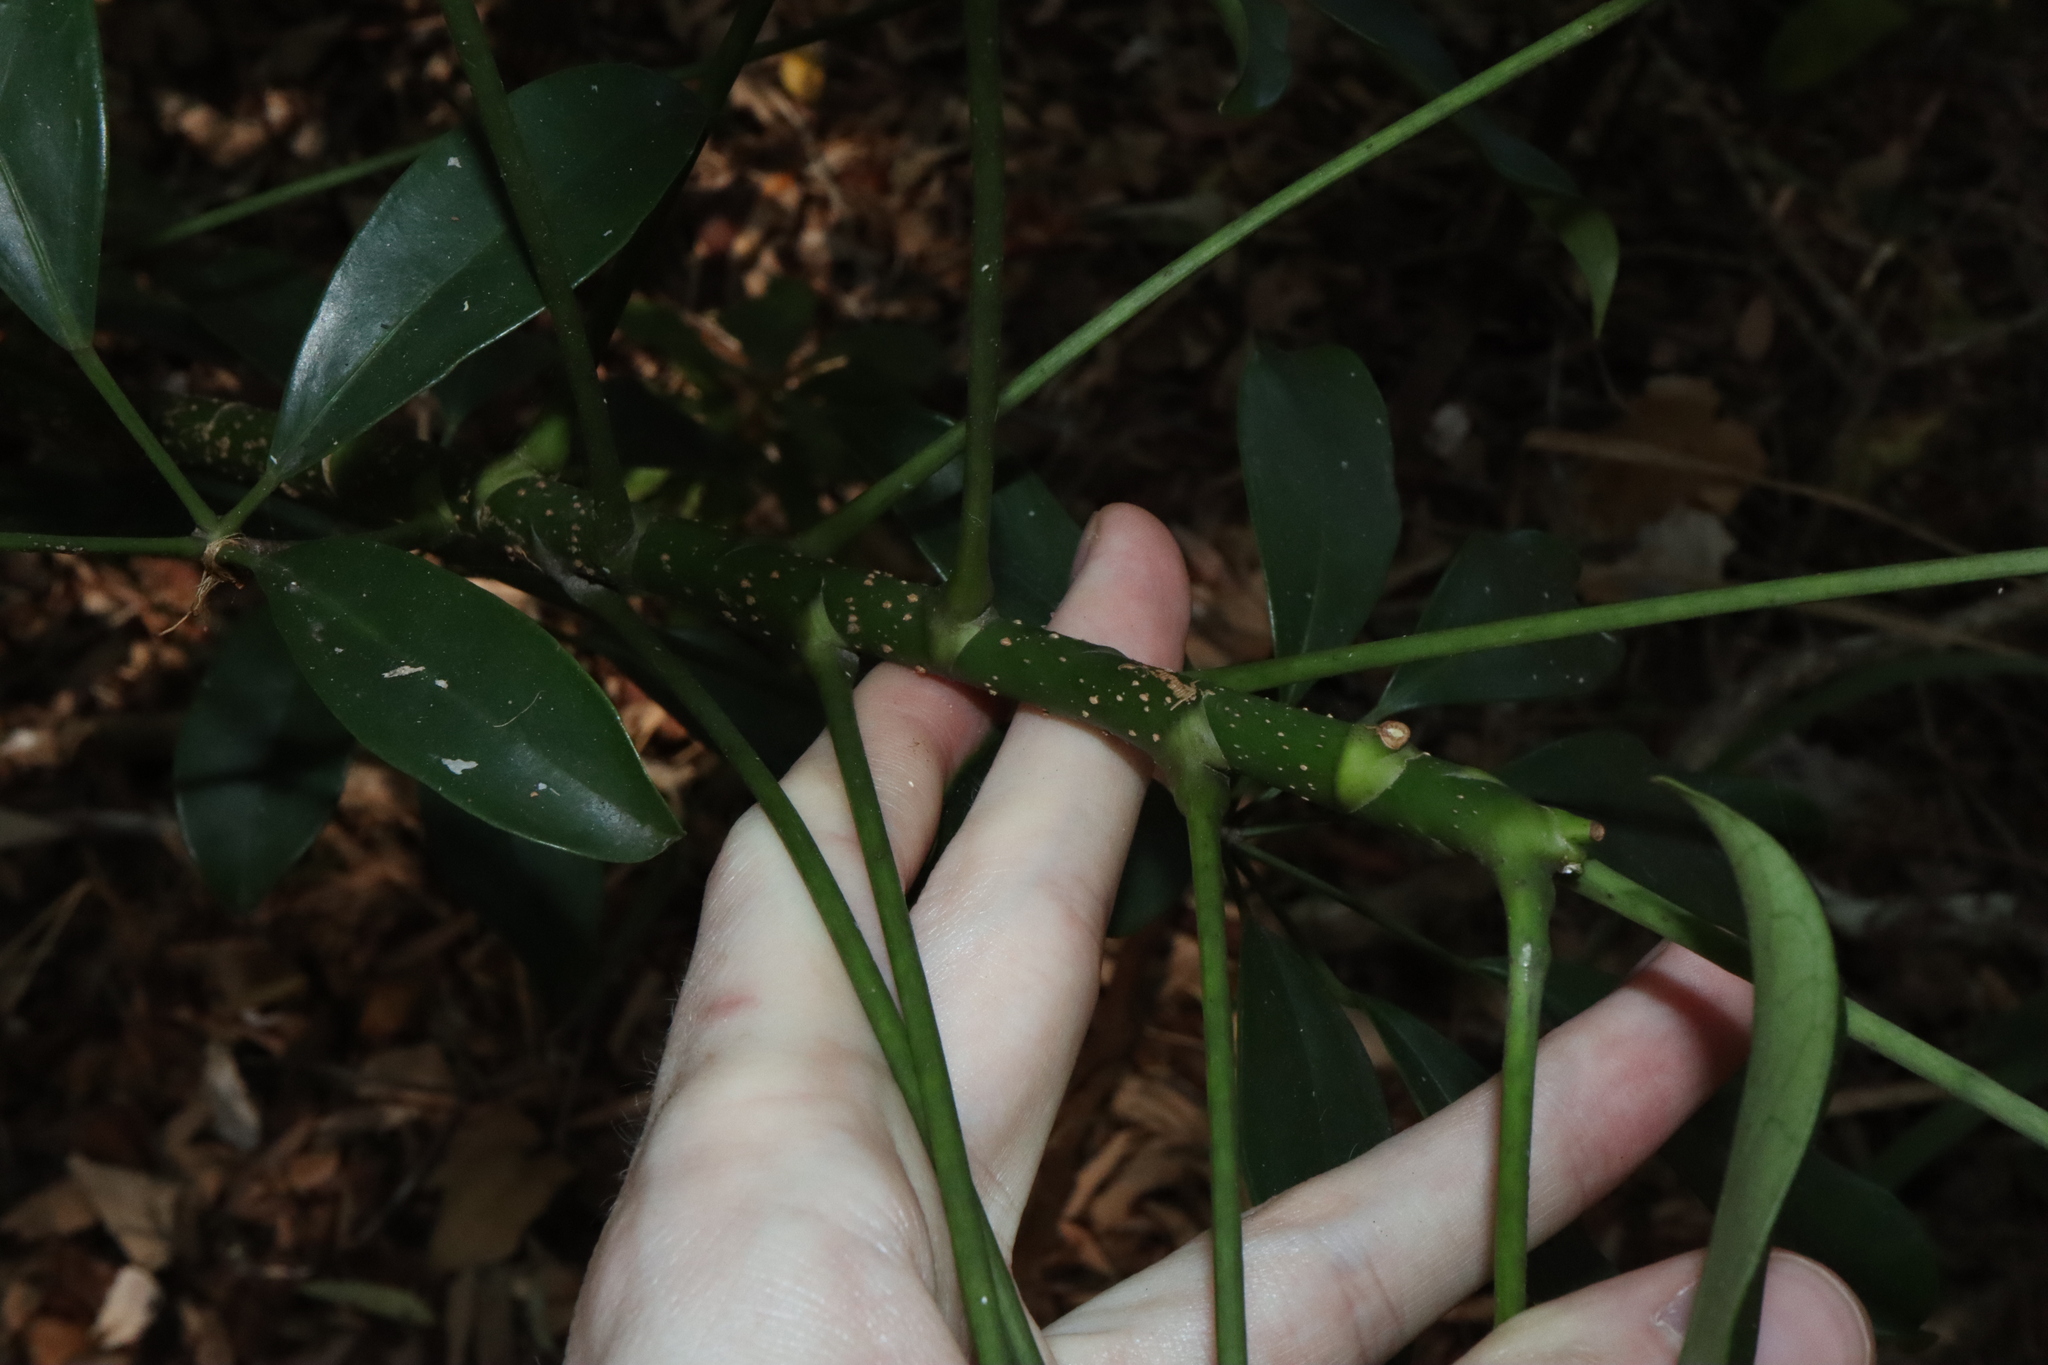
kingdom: Plantae
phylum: Tracheophyta
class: Magnoliopsida
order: Apiales
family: Araliaceae
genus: Heptapleurum
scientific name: Heptapleurum arboricola
